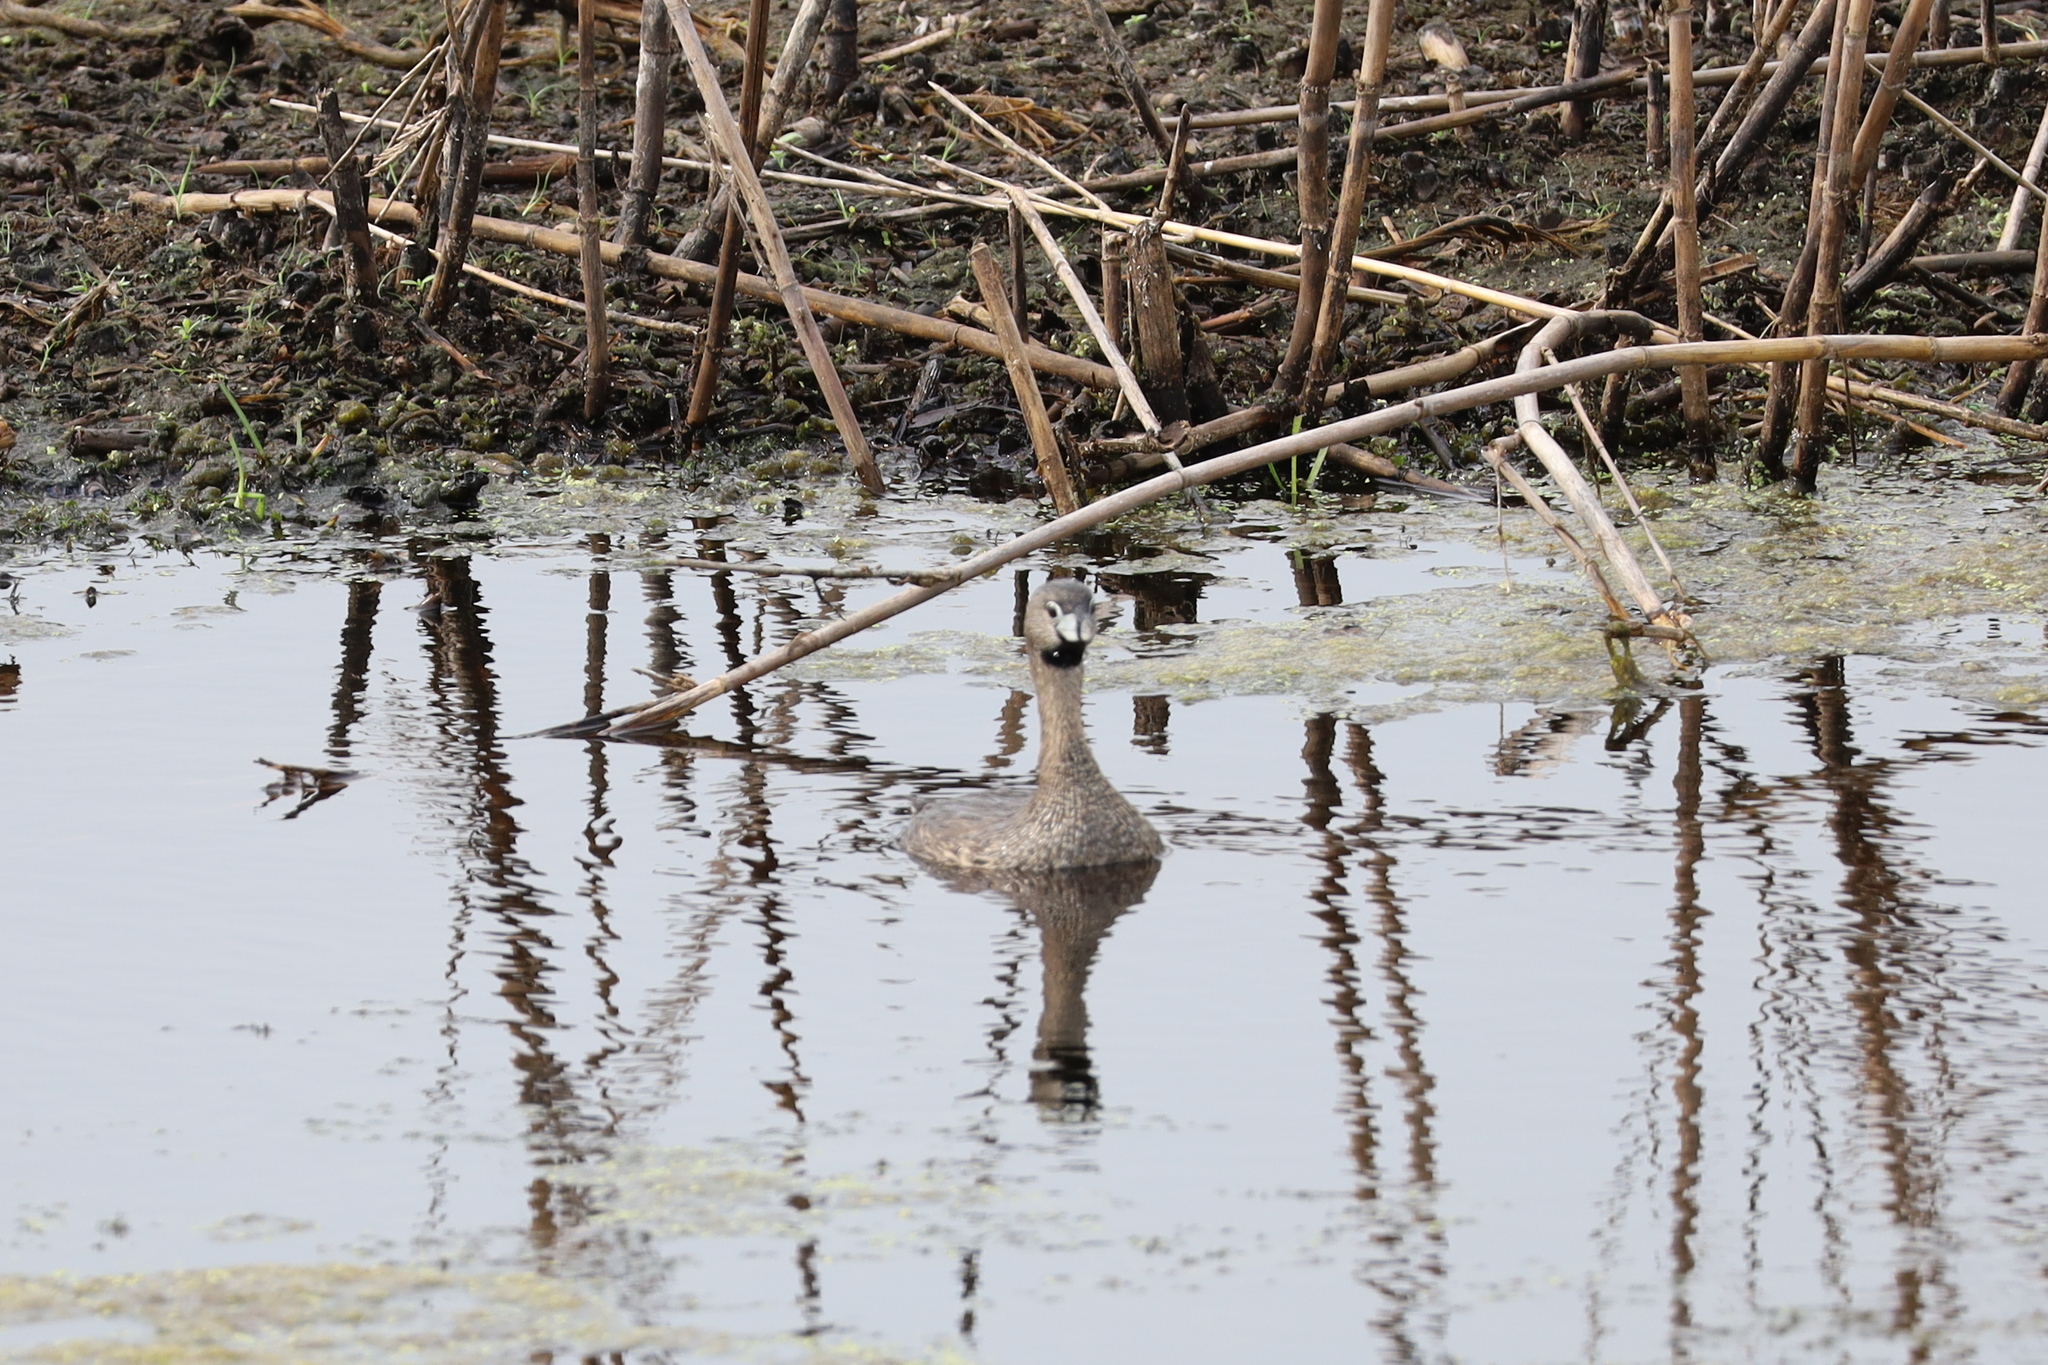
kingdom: Animalia
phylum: Chordata
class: Aves
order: Podicipediformes
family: Podicipedidae
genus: Podilymbus
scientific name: Podilymbus podiceps
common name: Pied-billed grebe
